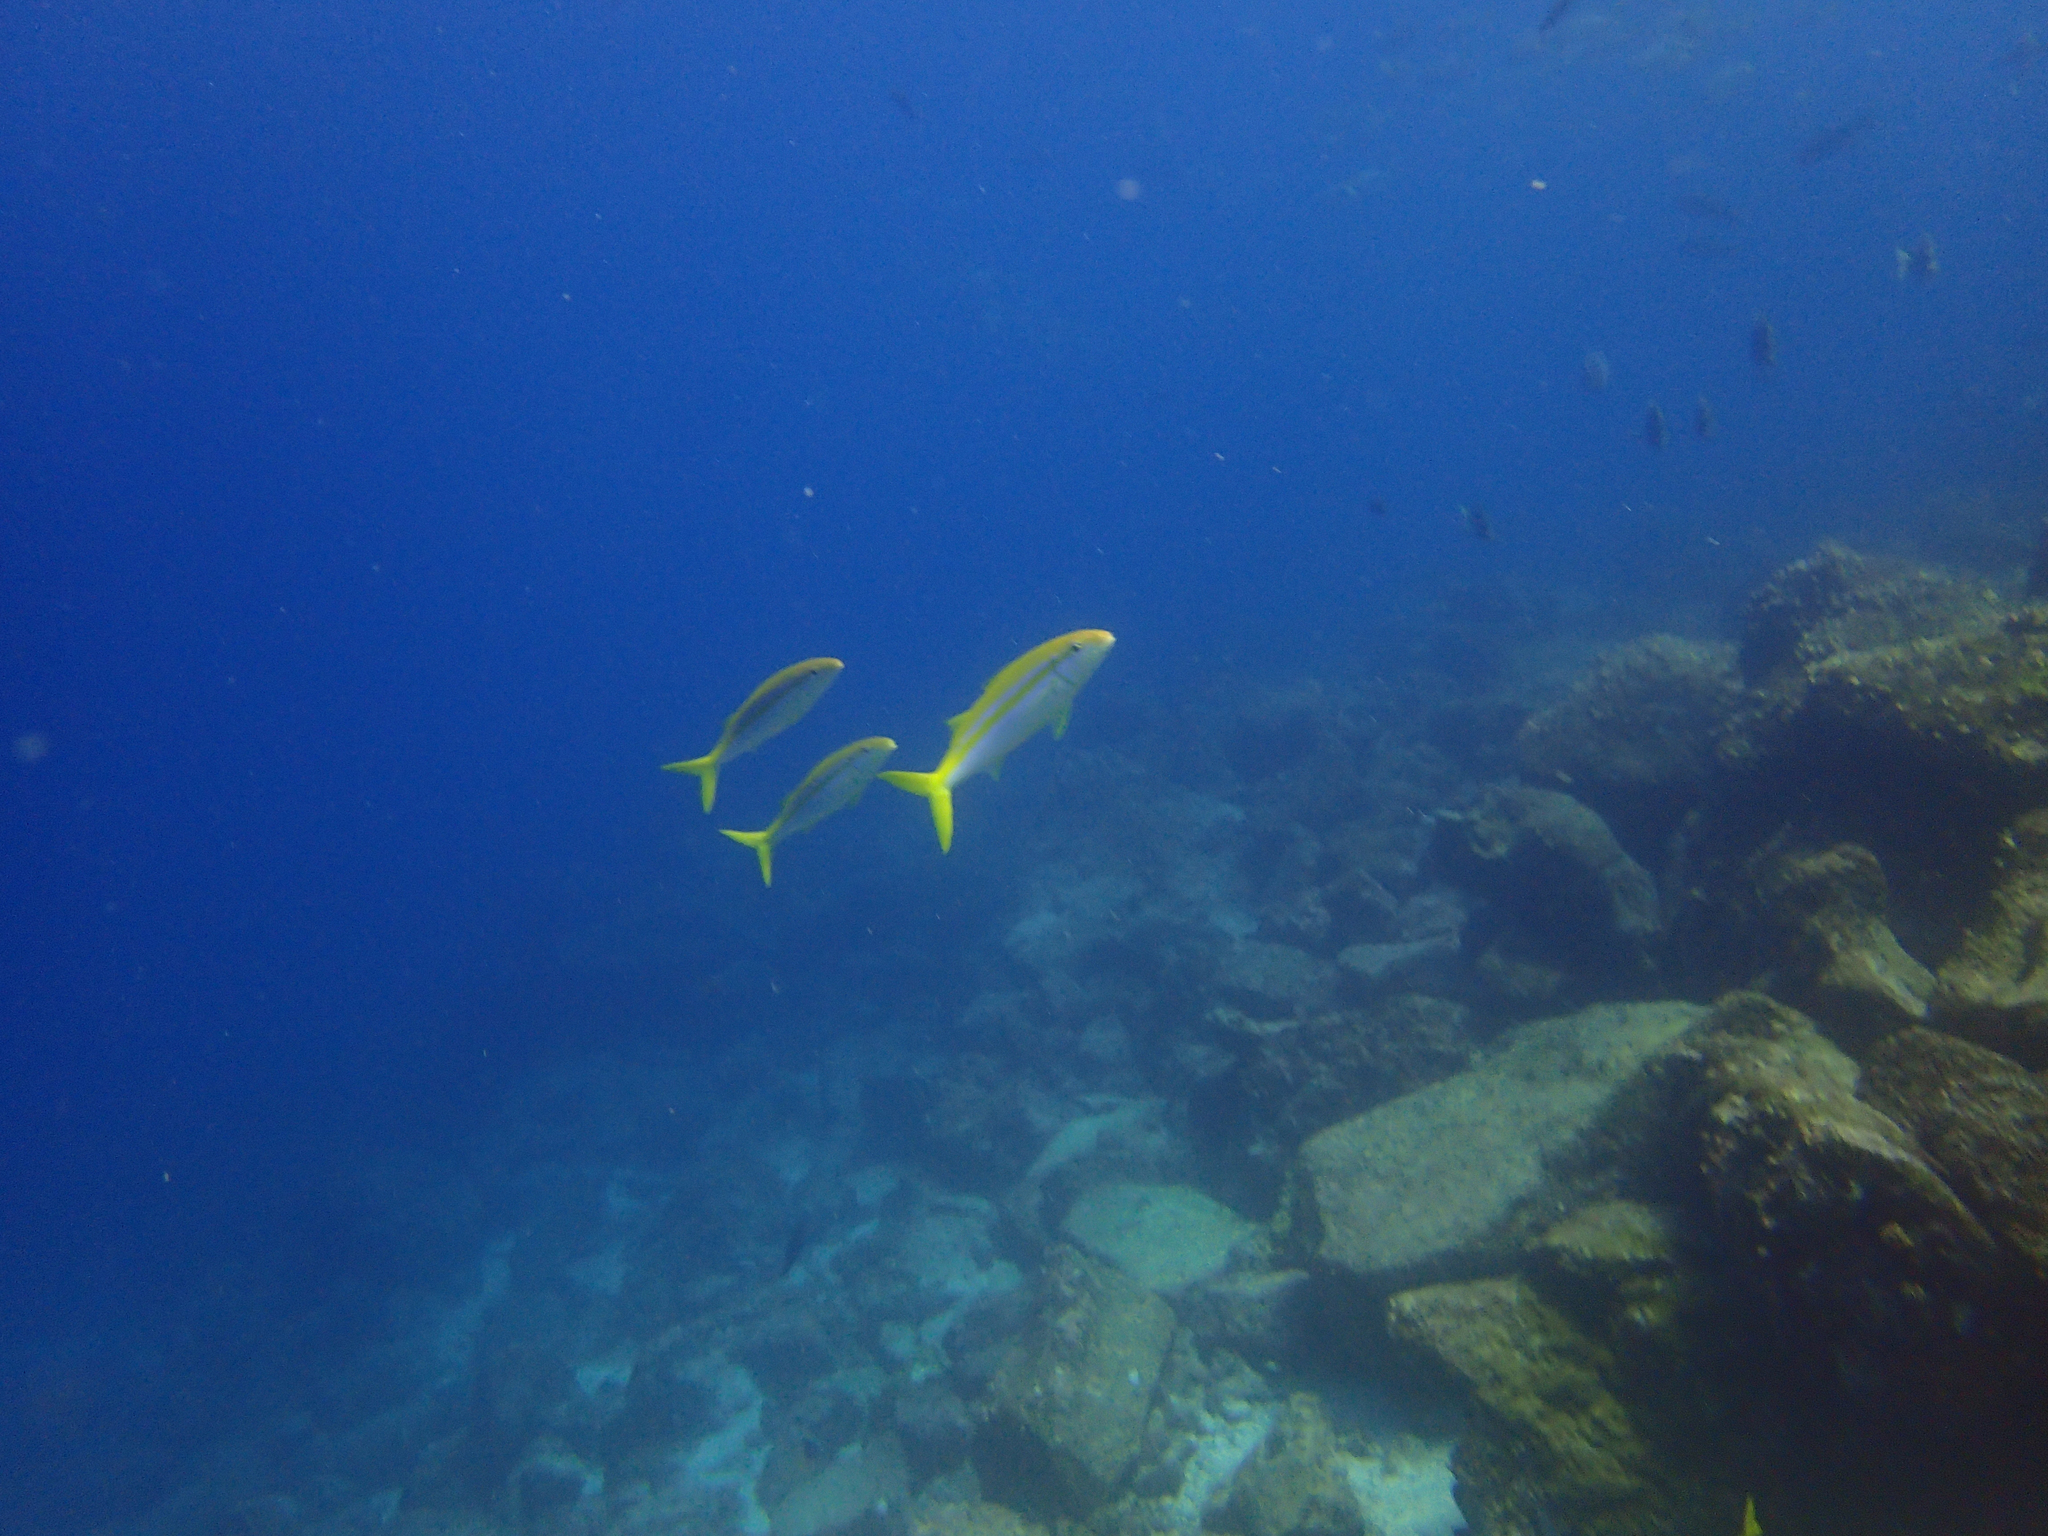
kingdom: Animalia
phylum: Chordata
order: Perciformes
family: Mullidae
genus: Mulloidichthys
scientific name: Mulloidichthys dentatus
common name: Mexican goatfish
